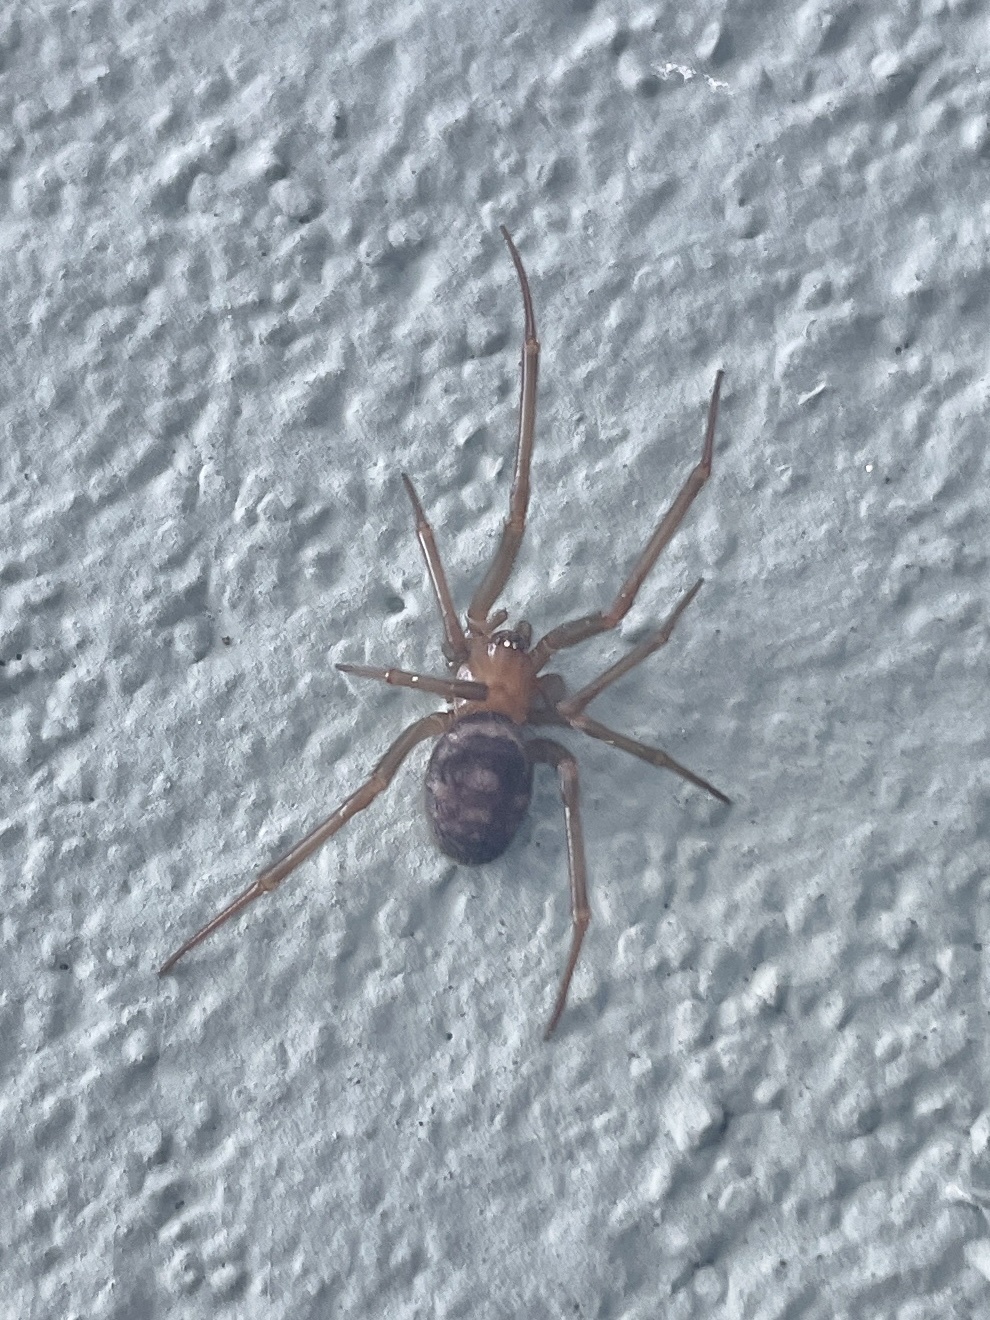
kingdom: Animalia
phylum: Arthropoda
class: Arachnida
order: Araneae
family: Theridiidae
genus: Steatoda
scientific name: Steatoda grossa
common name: False black widow
